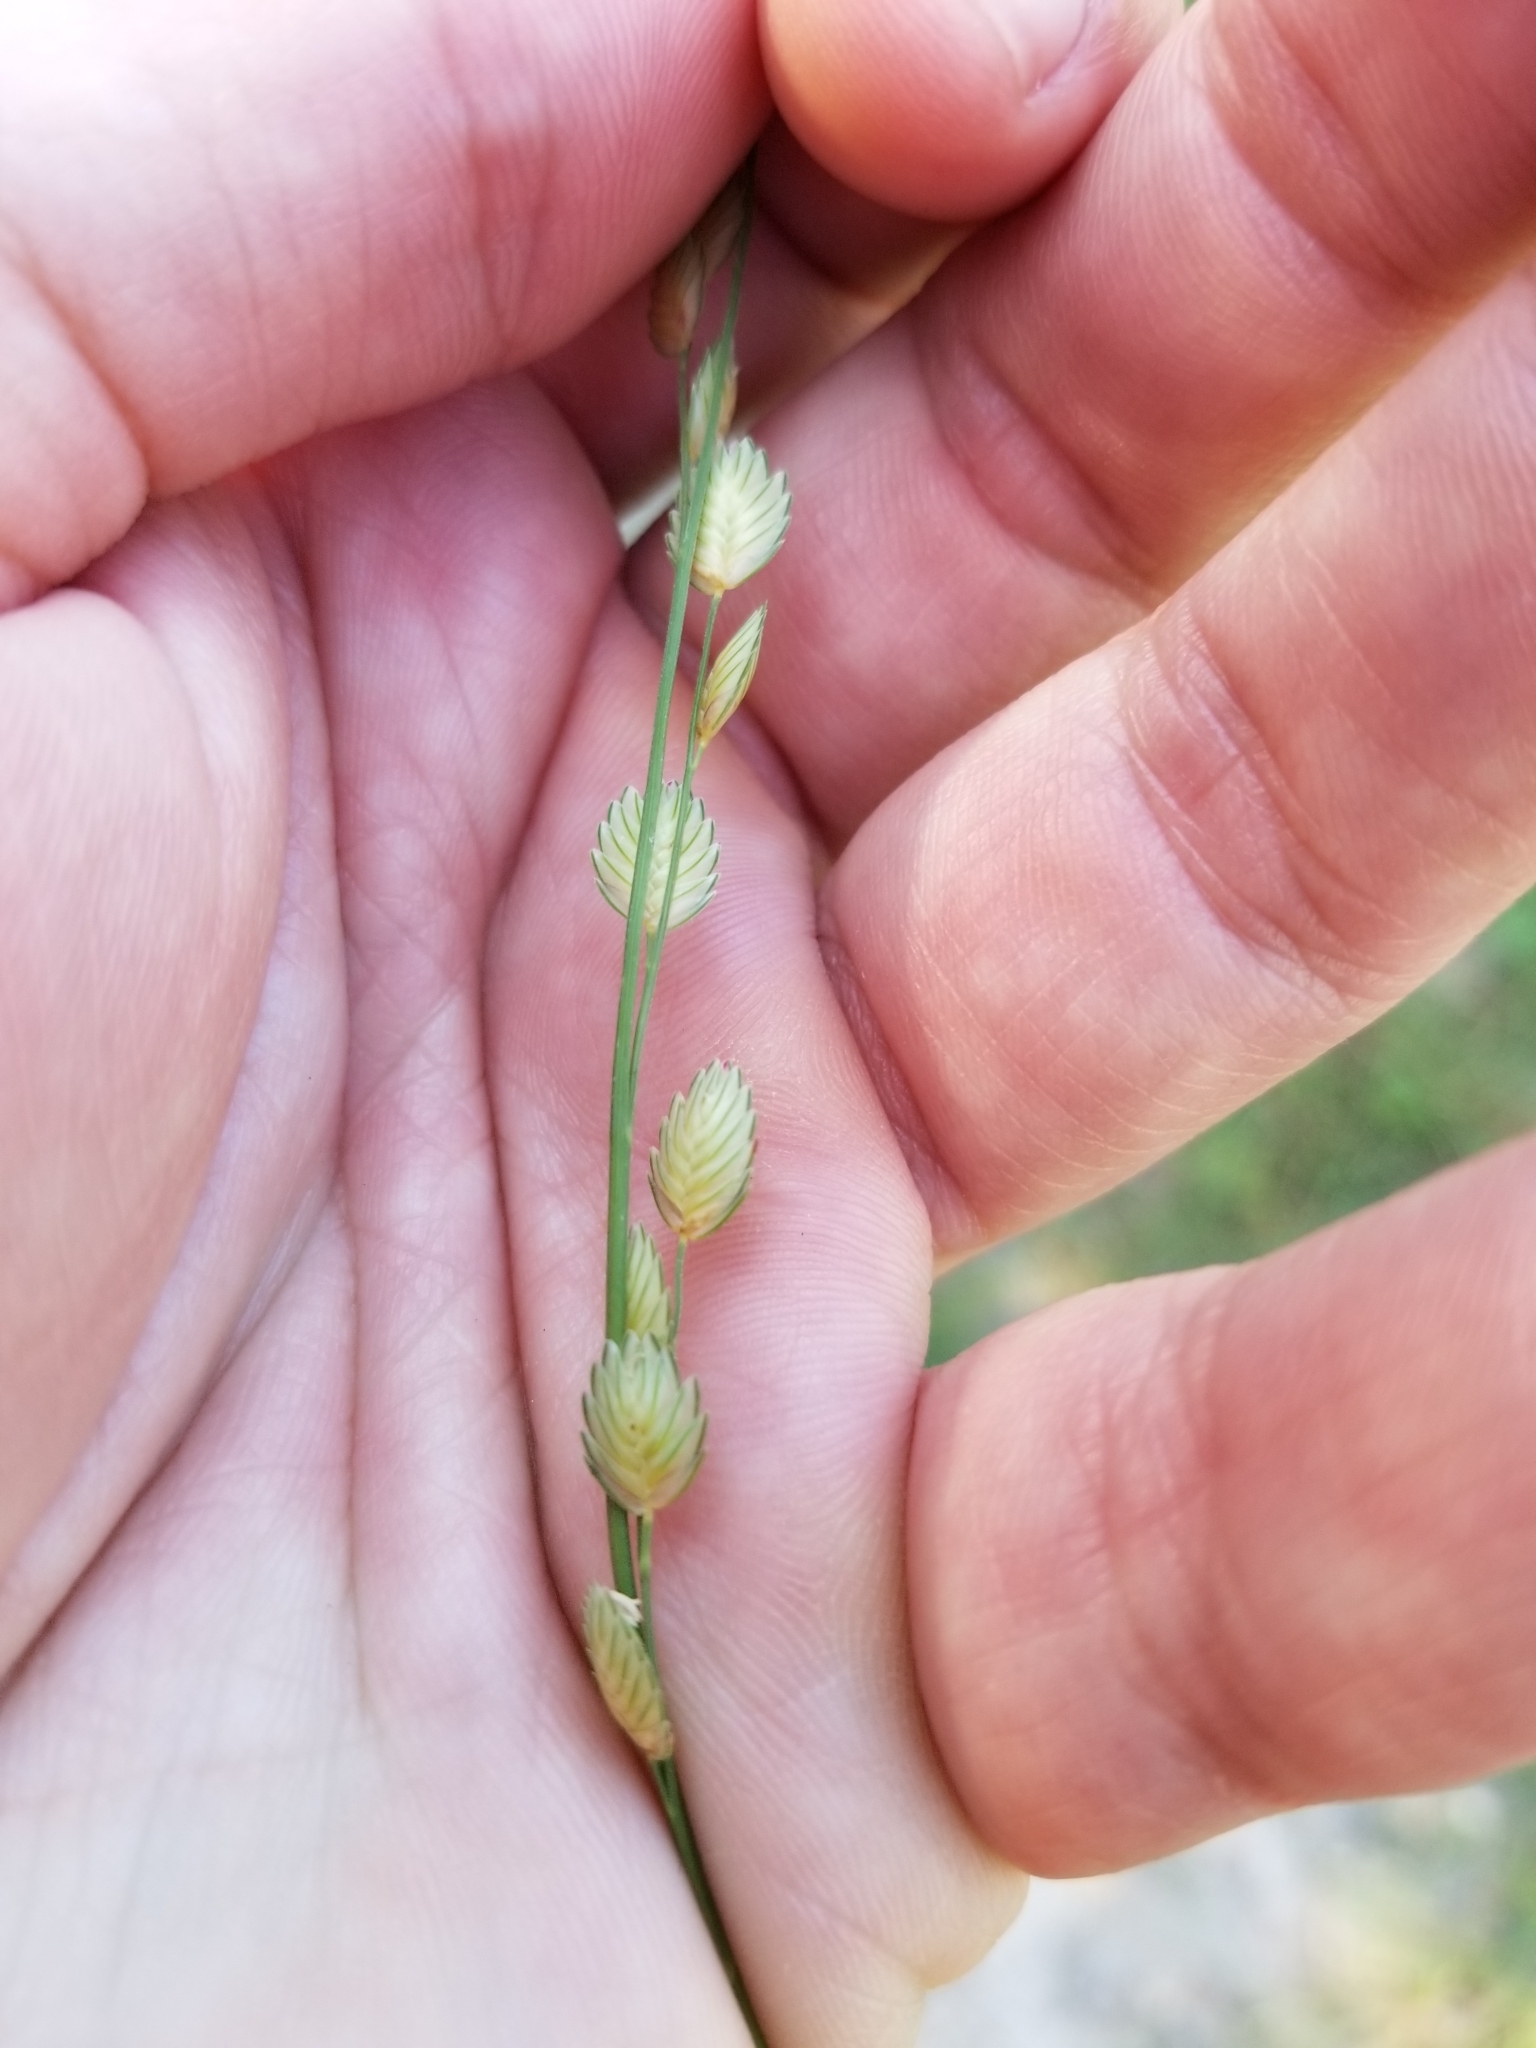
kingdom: Plantae
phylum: Tracheophyta
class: Liliopsida
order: Poales
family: Poaceae
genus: Eragrostis
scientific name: Eragrostis superba
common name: Wilman lovegrass
